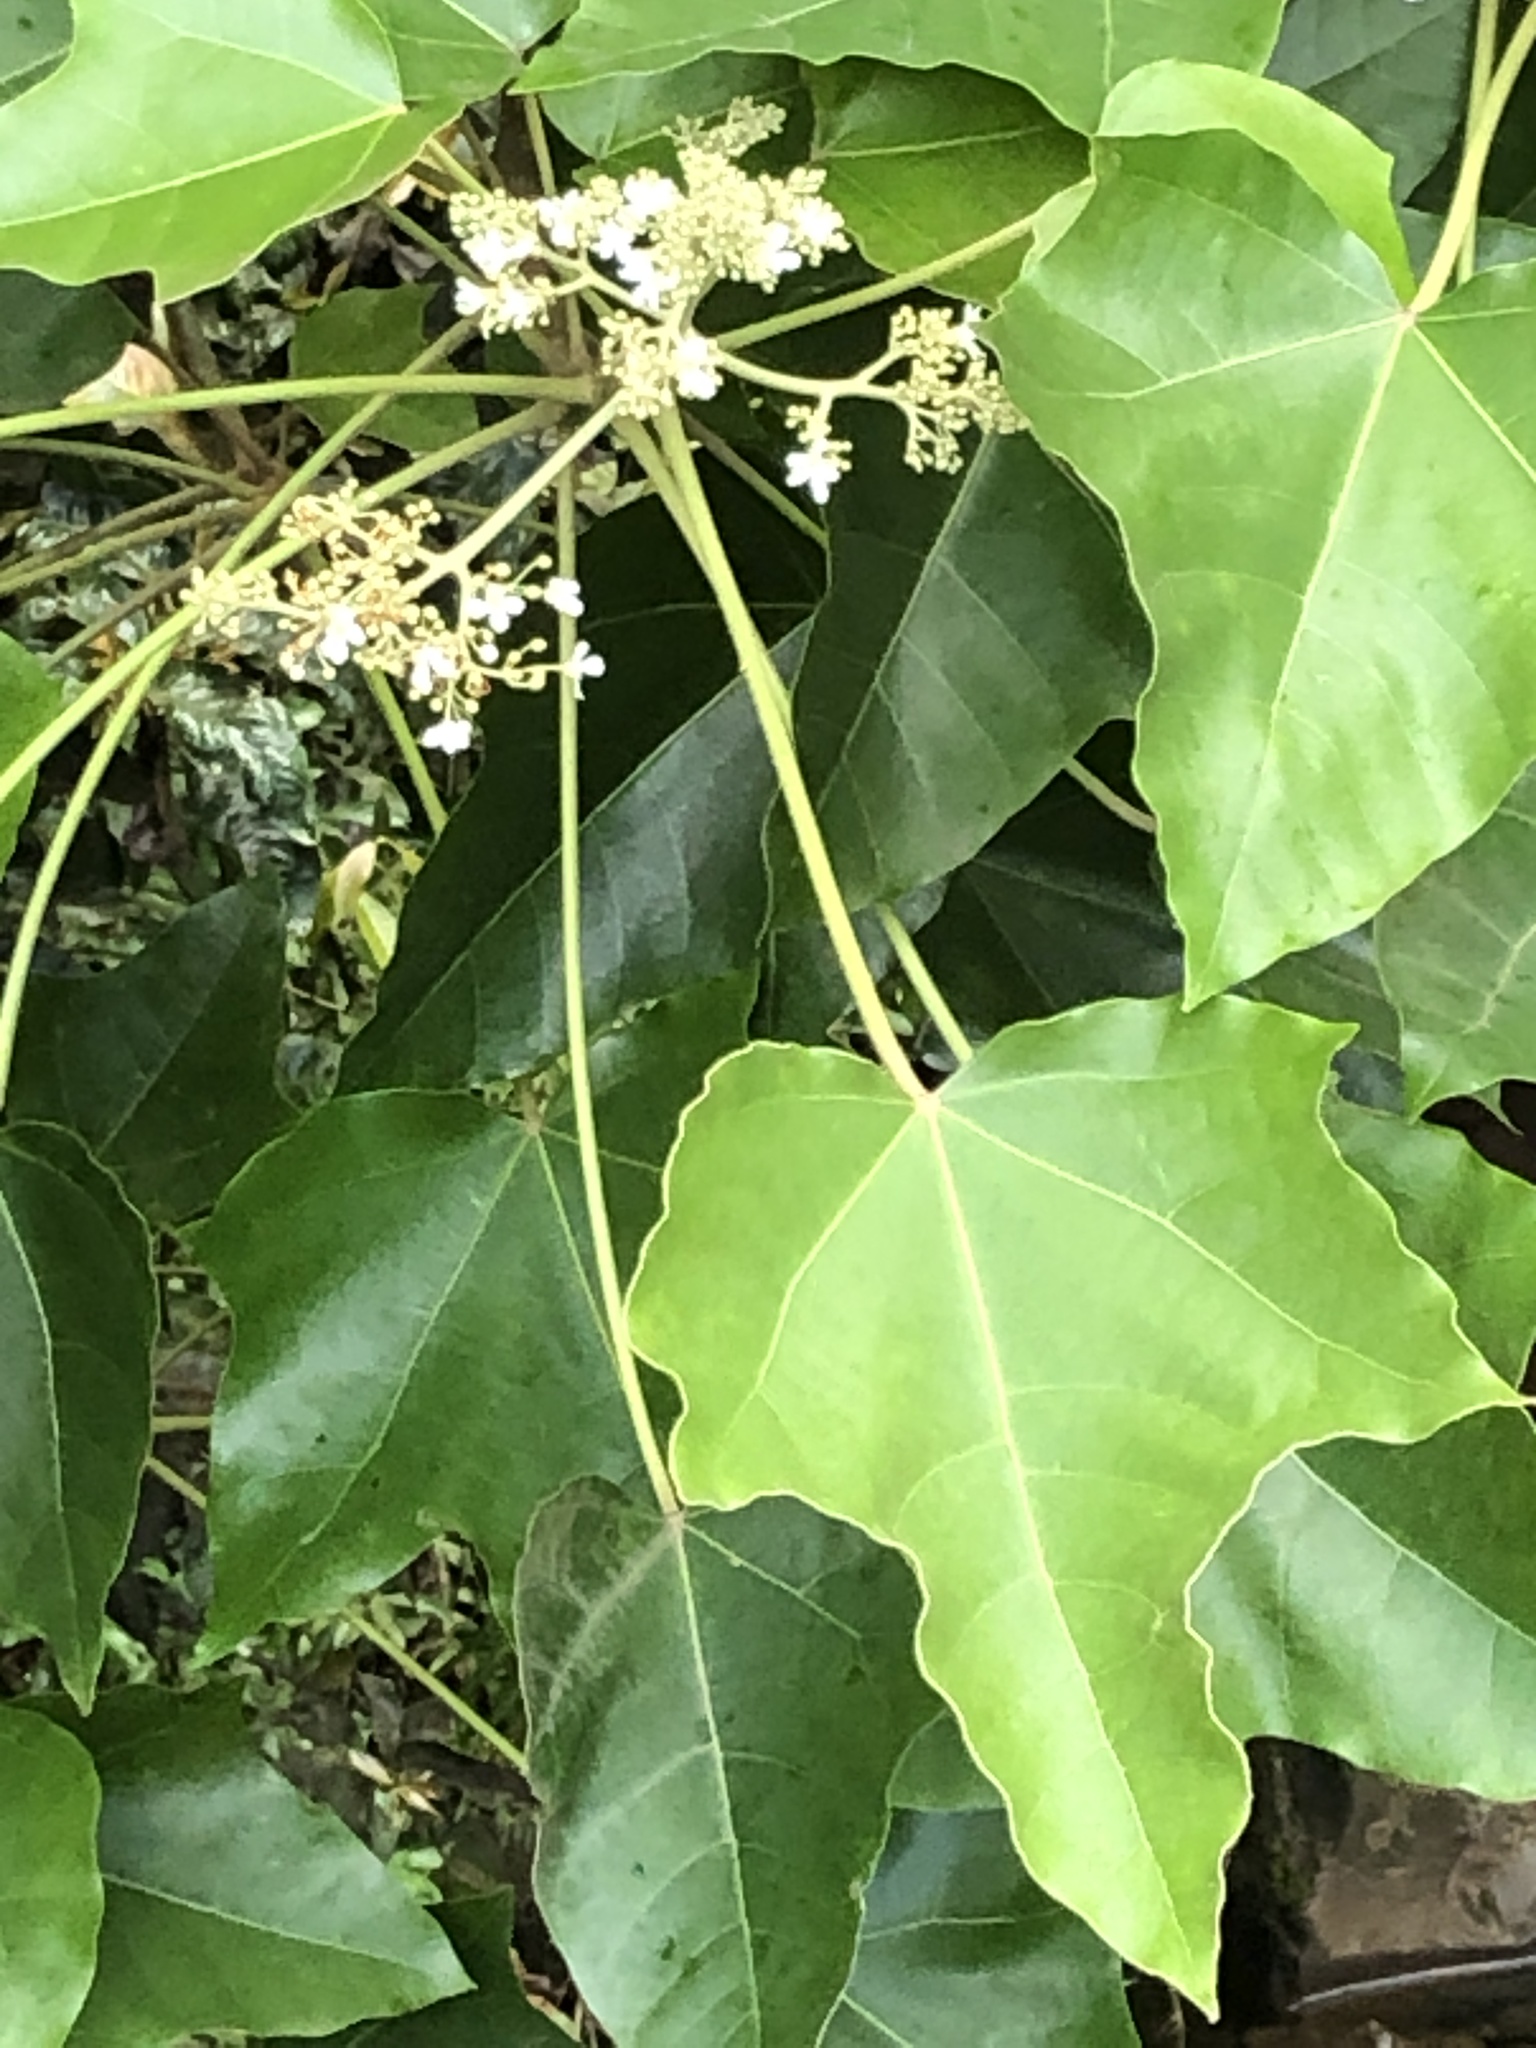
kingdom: Plantae
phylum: Tracheophyta
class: Magnoliopsida
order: Malpighiales
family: Euphorbiaceae
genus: Aleurites
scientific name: Aleurites moluccanus
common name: Candlenut tree
